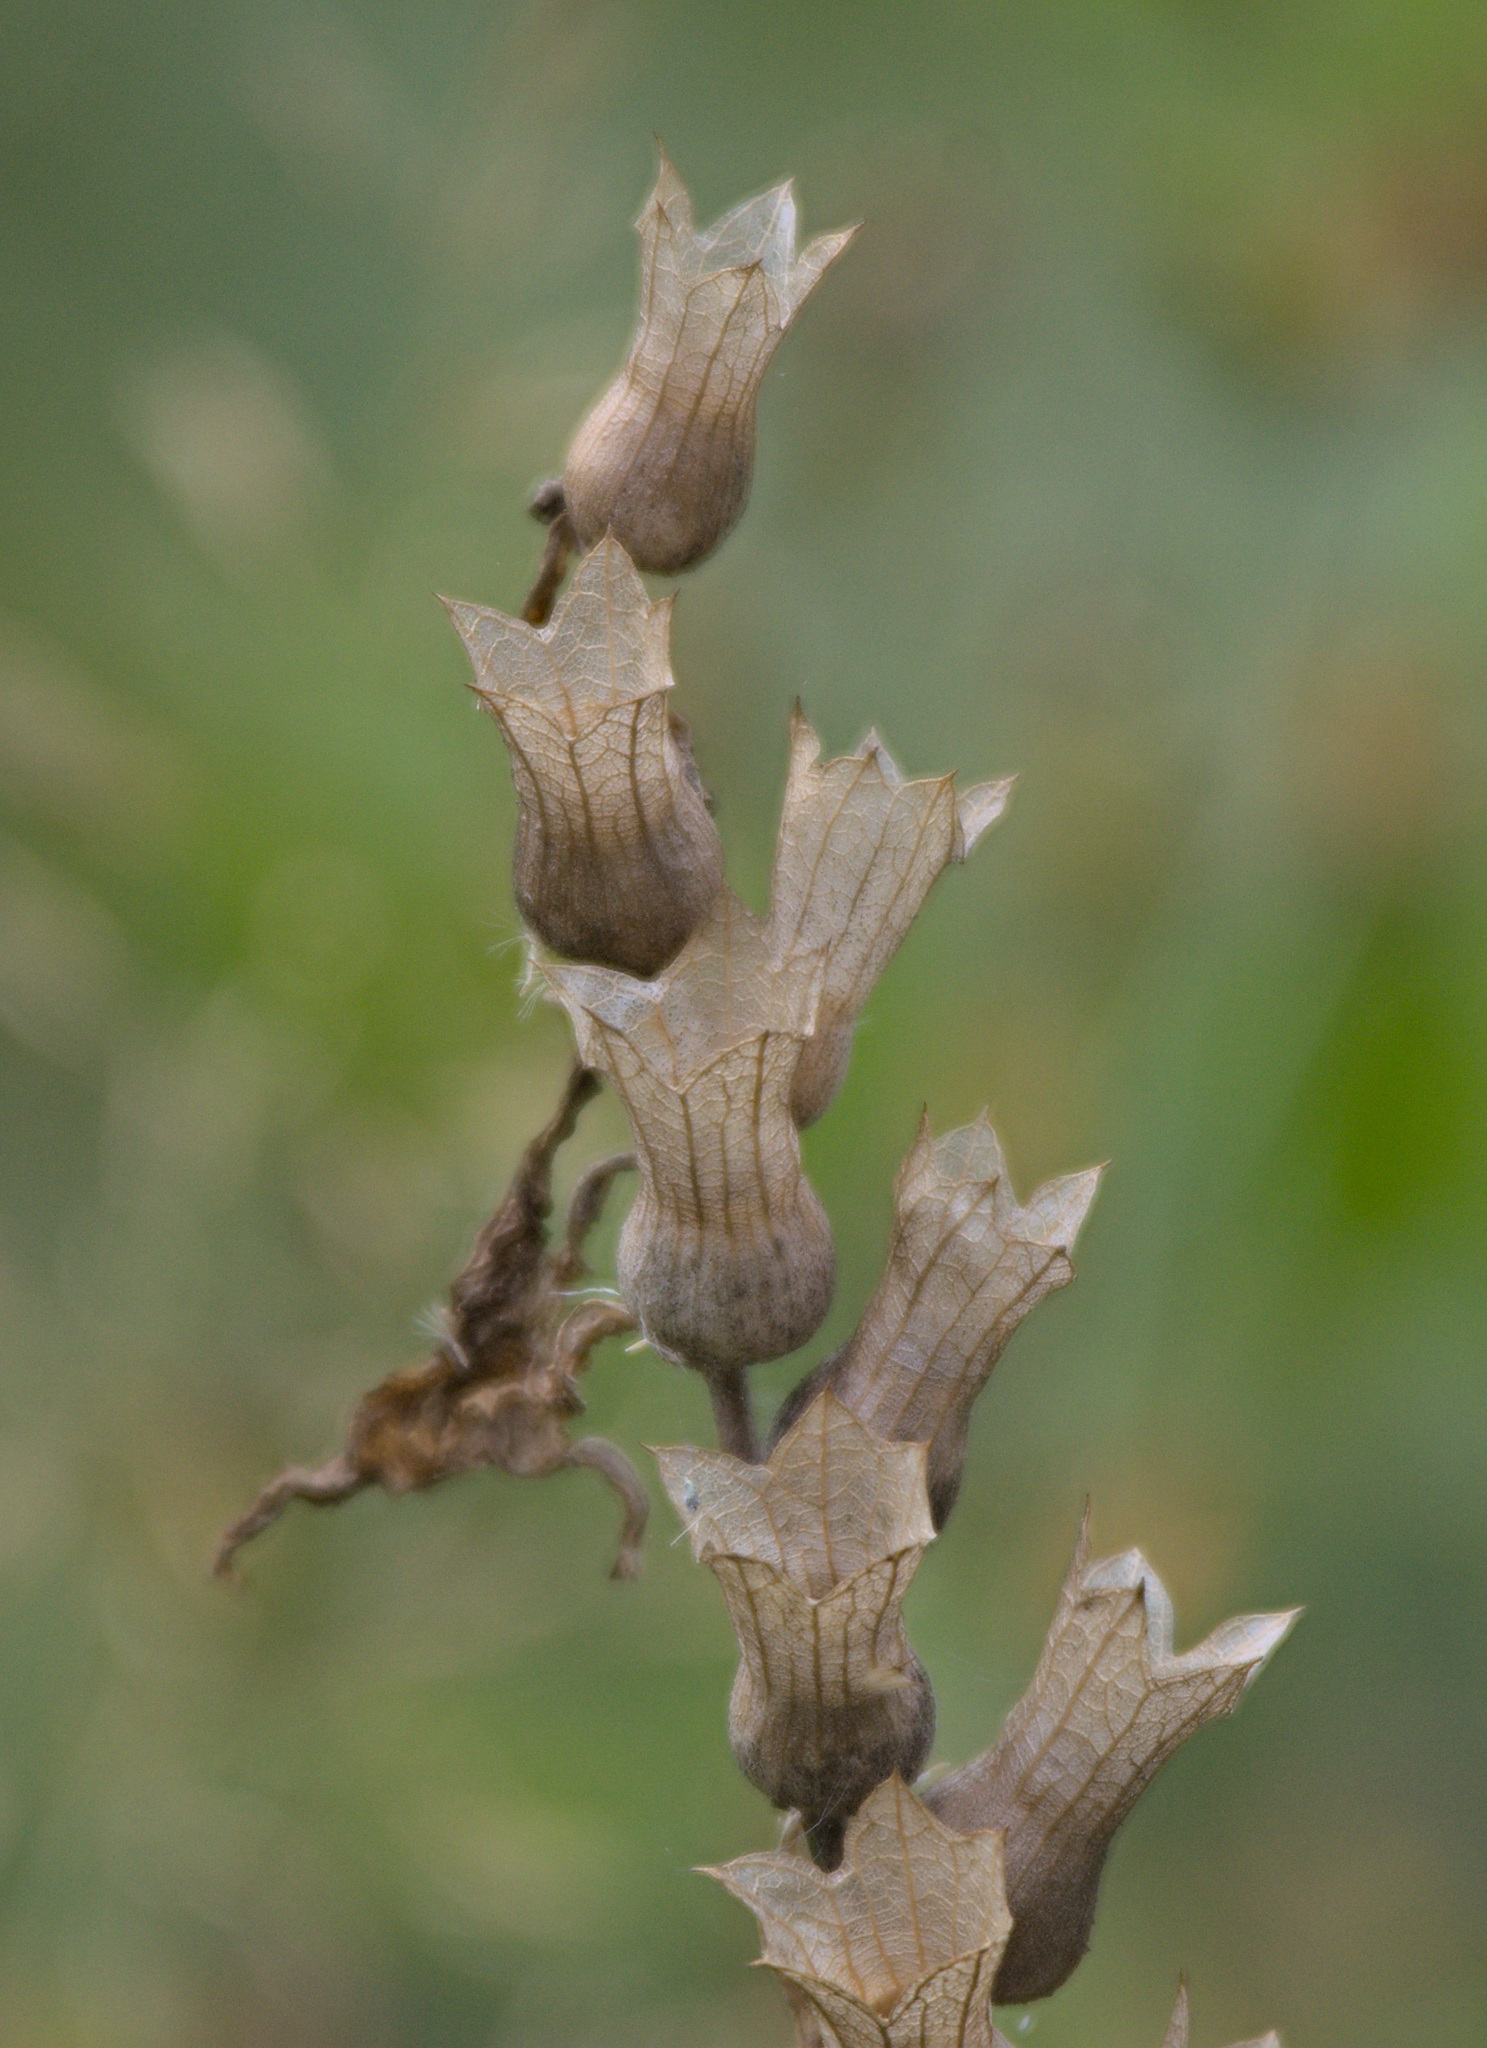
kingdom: Plantae
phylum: Tracheophyta
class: Magnoliopsida
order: Solanales
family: Solanaceae
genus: Hyoscyamus
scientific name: Hyoscyamus niger
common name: Henbane
